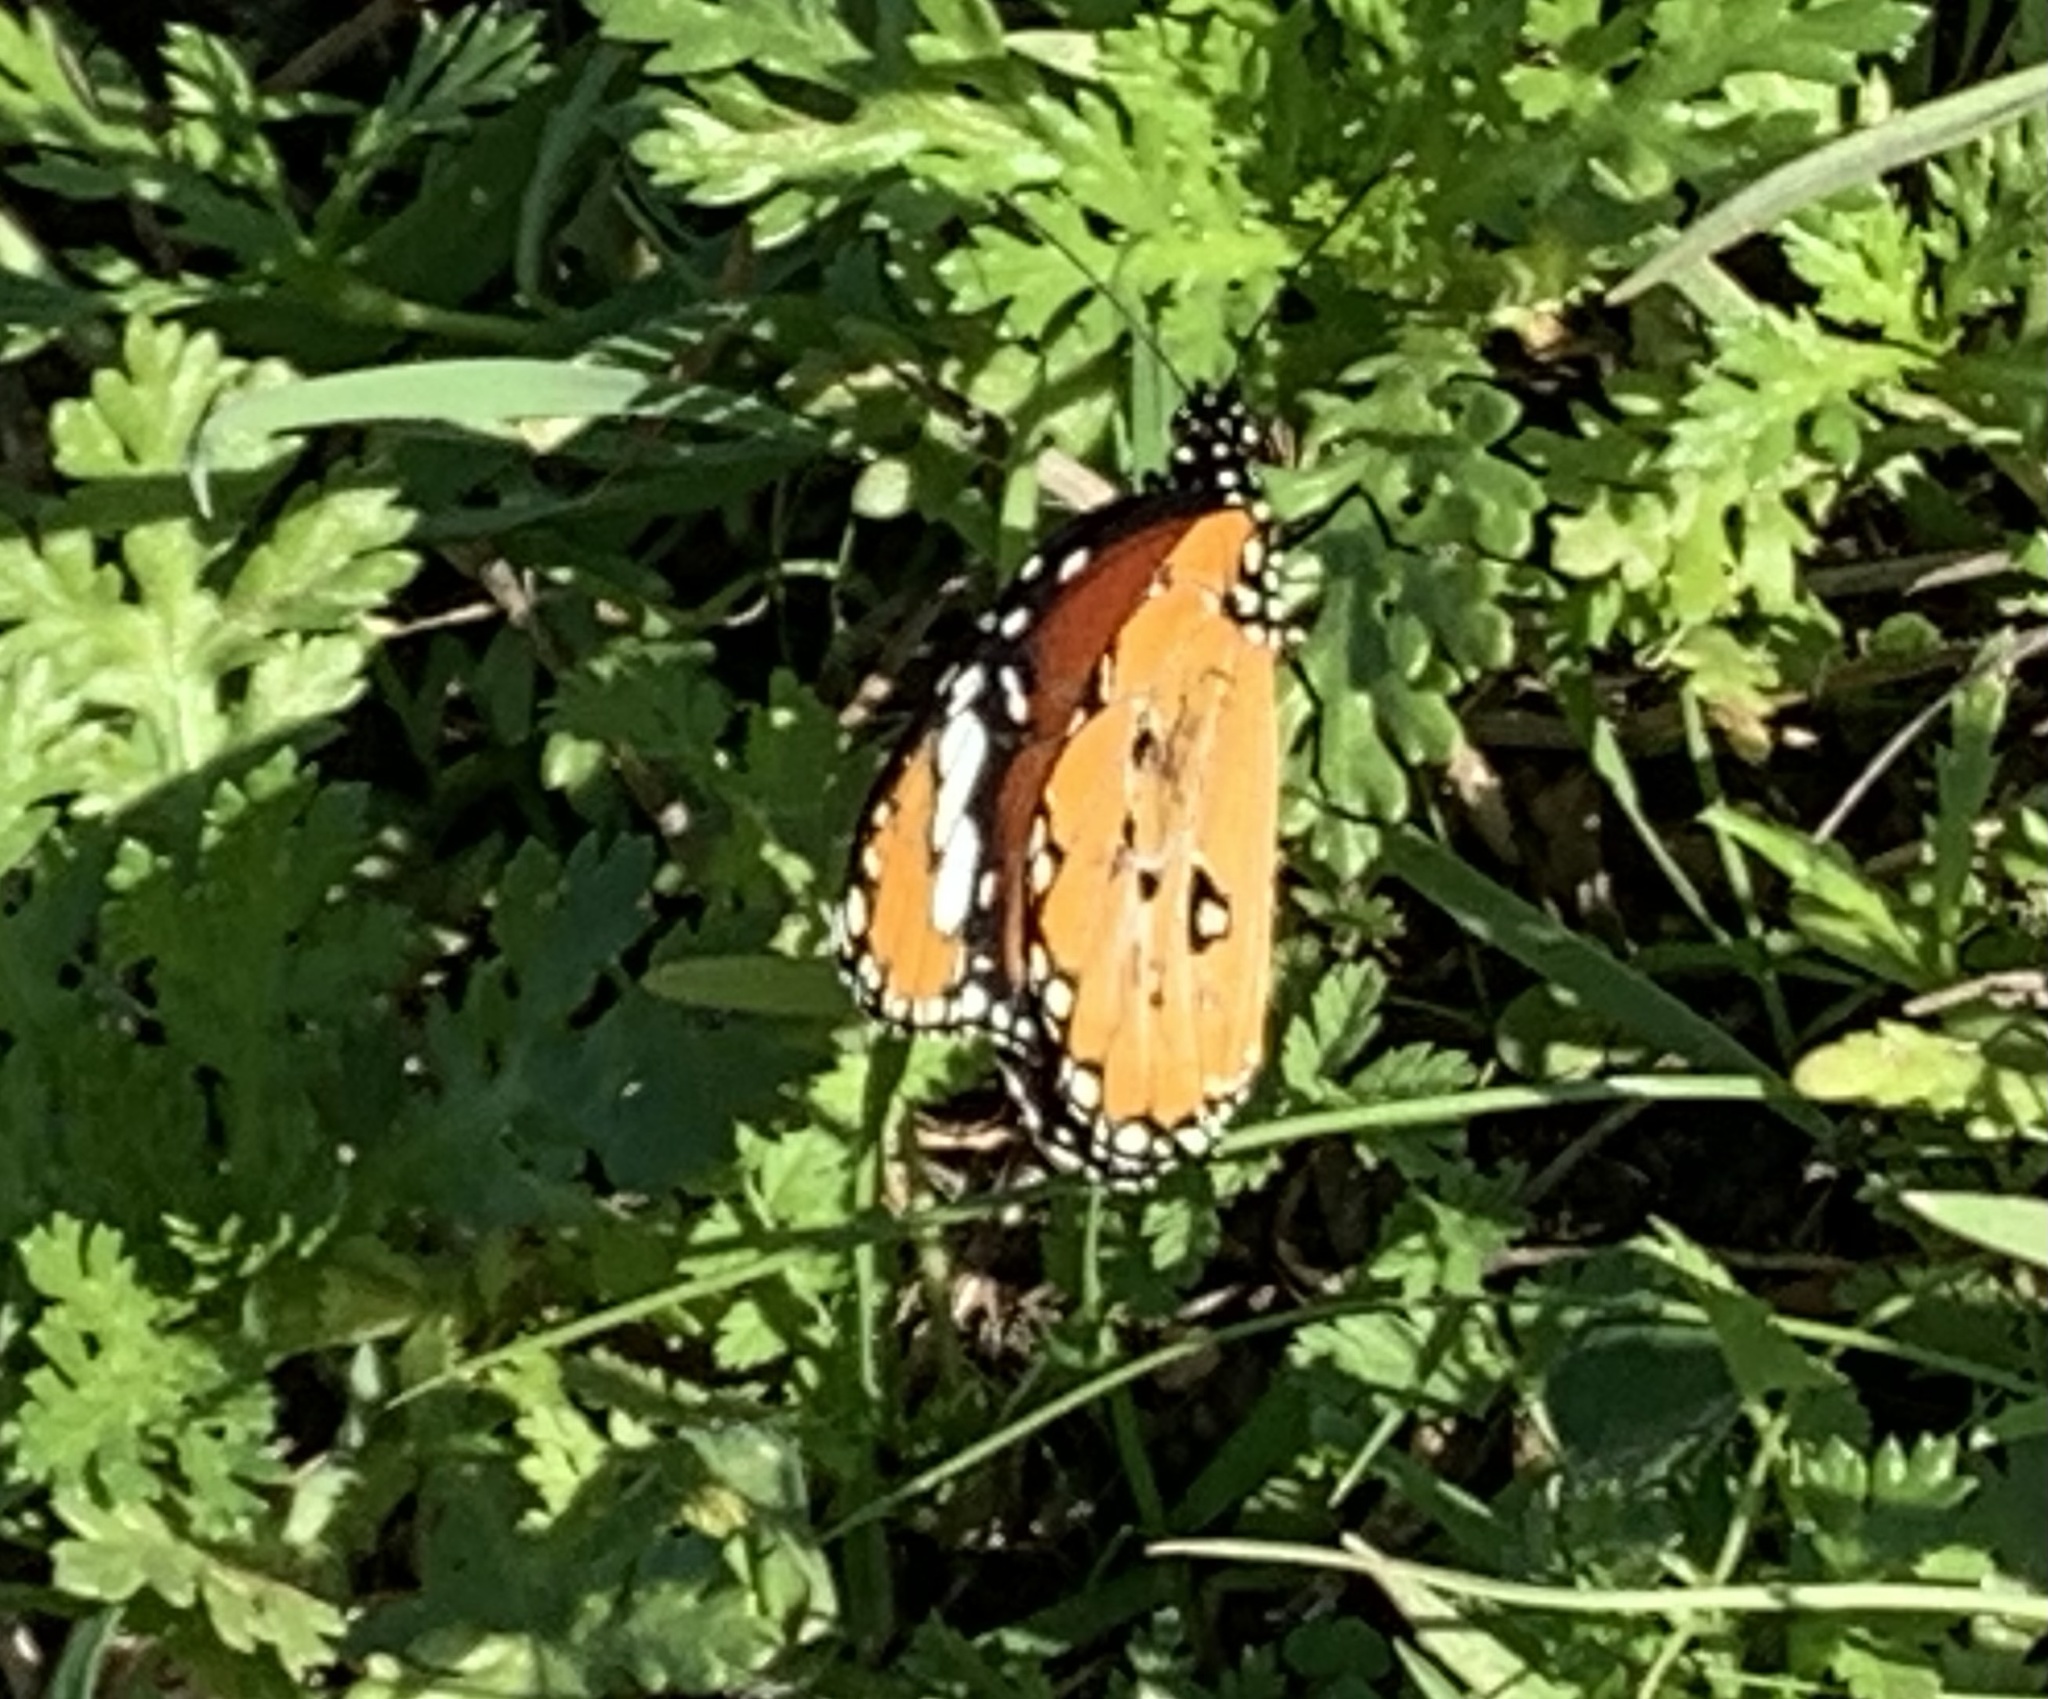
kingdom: Animalia
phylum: Arthropoda
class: Insecta
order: Lepidoptera
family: Nymphalidae
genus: Danaus
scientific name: Danaus chrysippus
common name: Plain tiger
